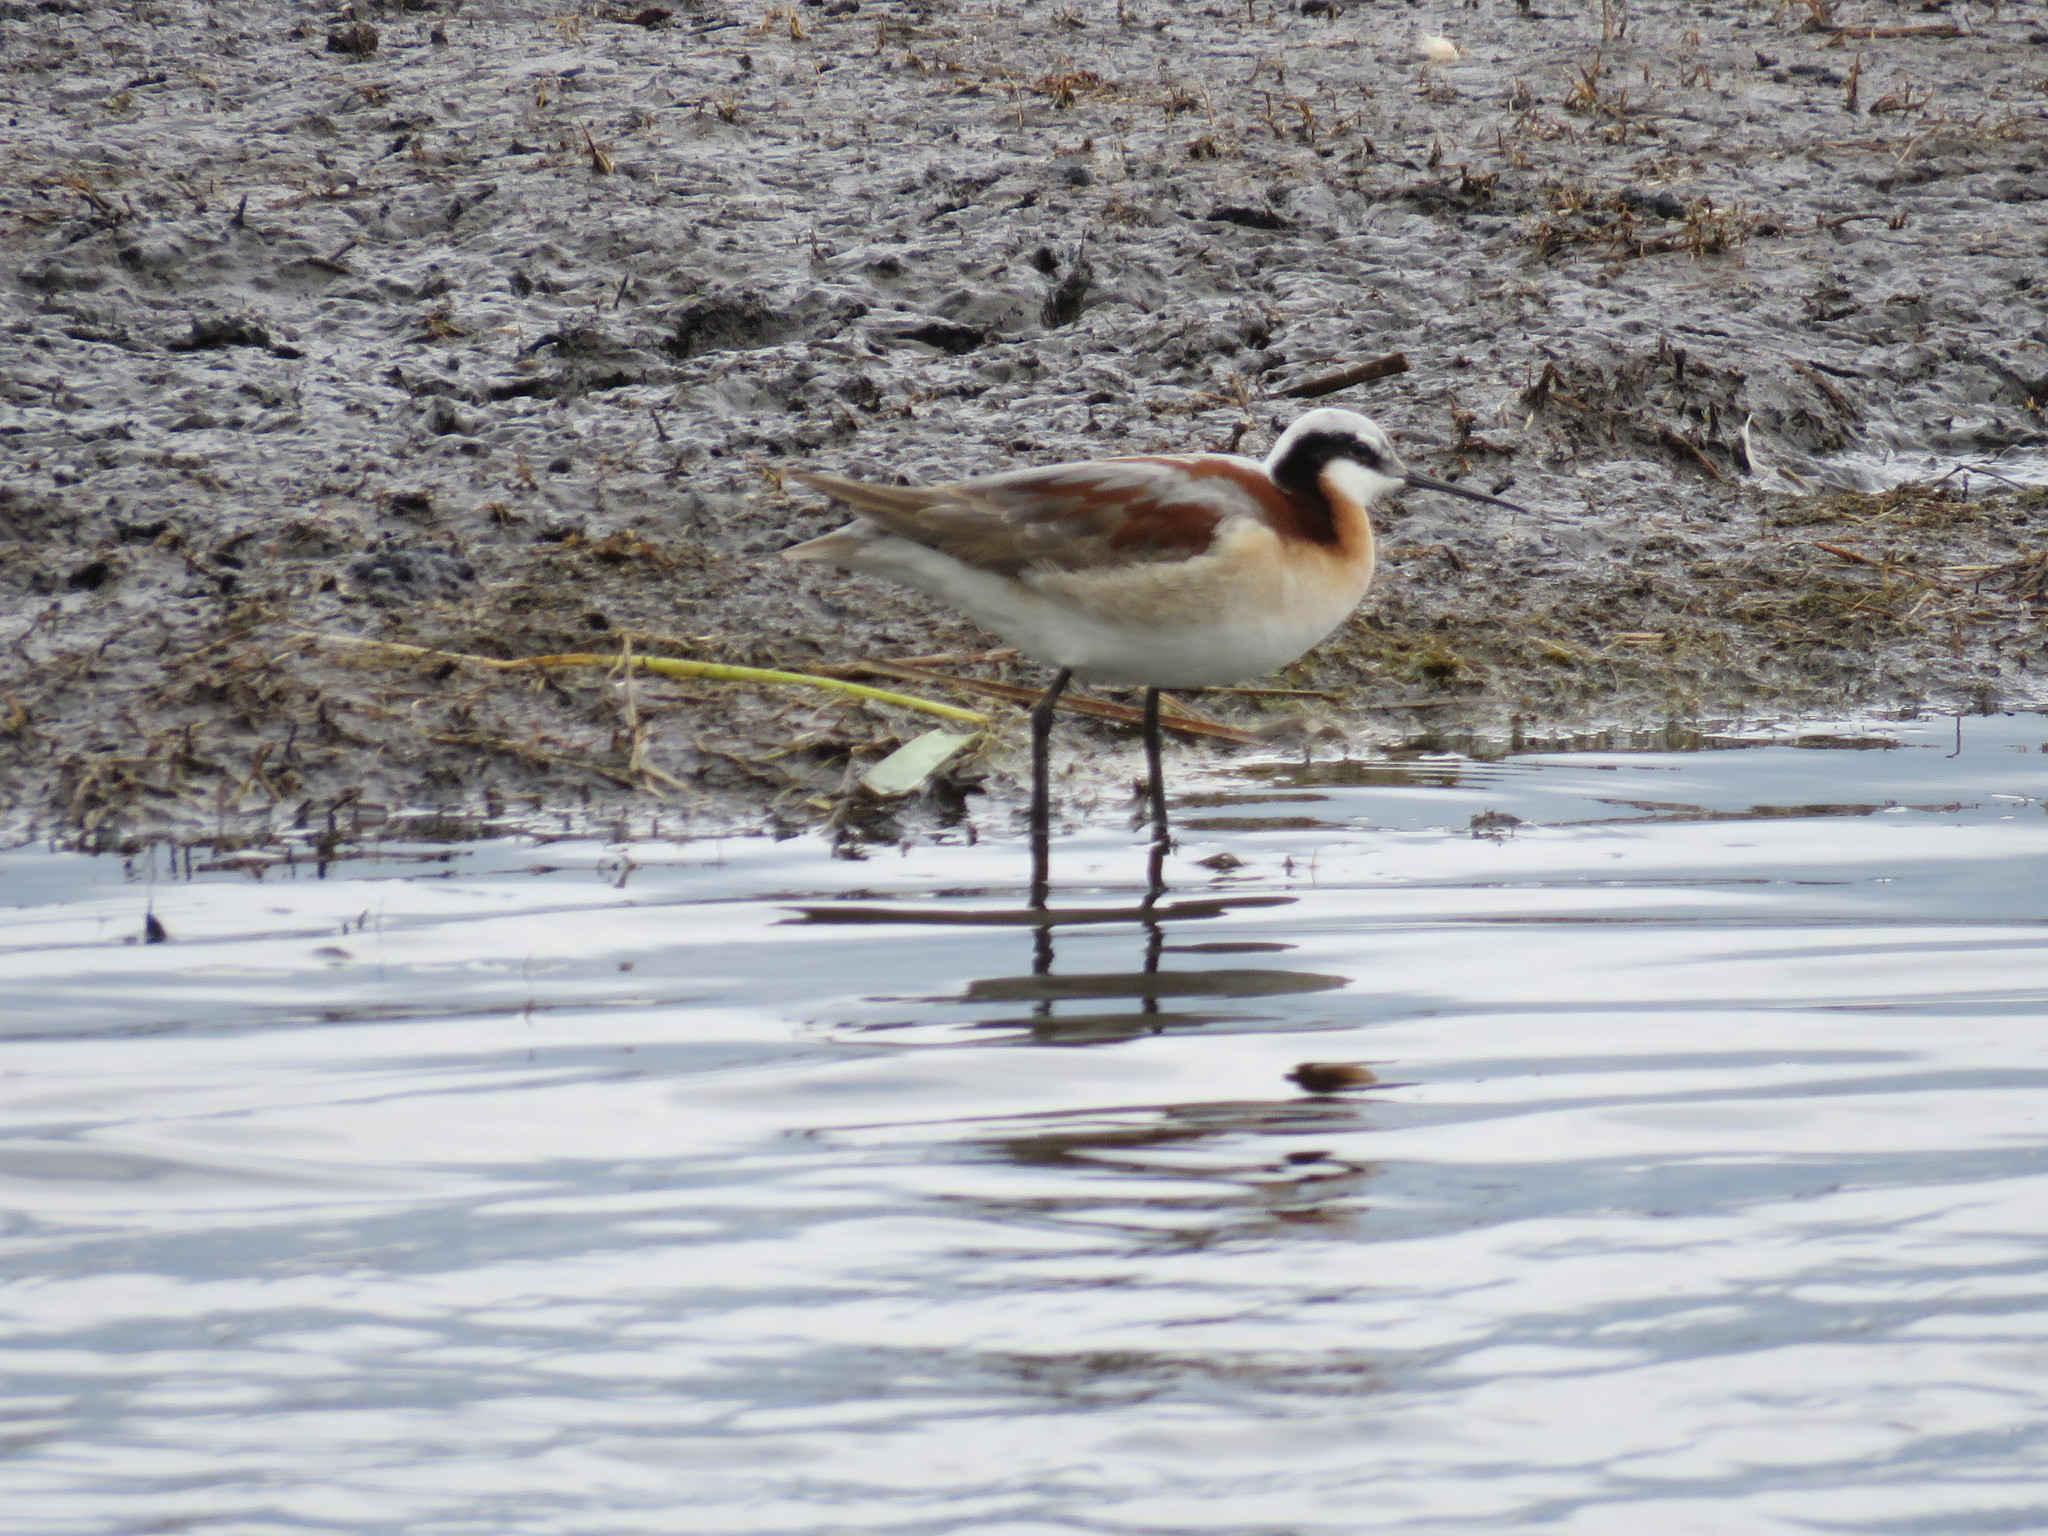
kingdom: Animalia
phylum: Chordata
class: Aves
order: Charadriiformes
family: Scolopacidae
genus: Phalaropus
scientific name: Phalaropus tricolor
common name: Wilson's phalarope
